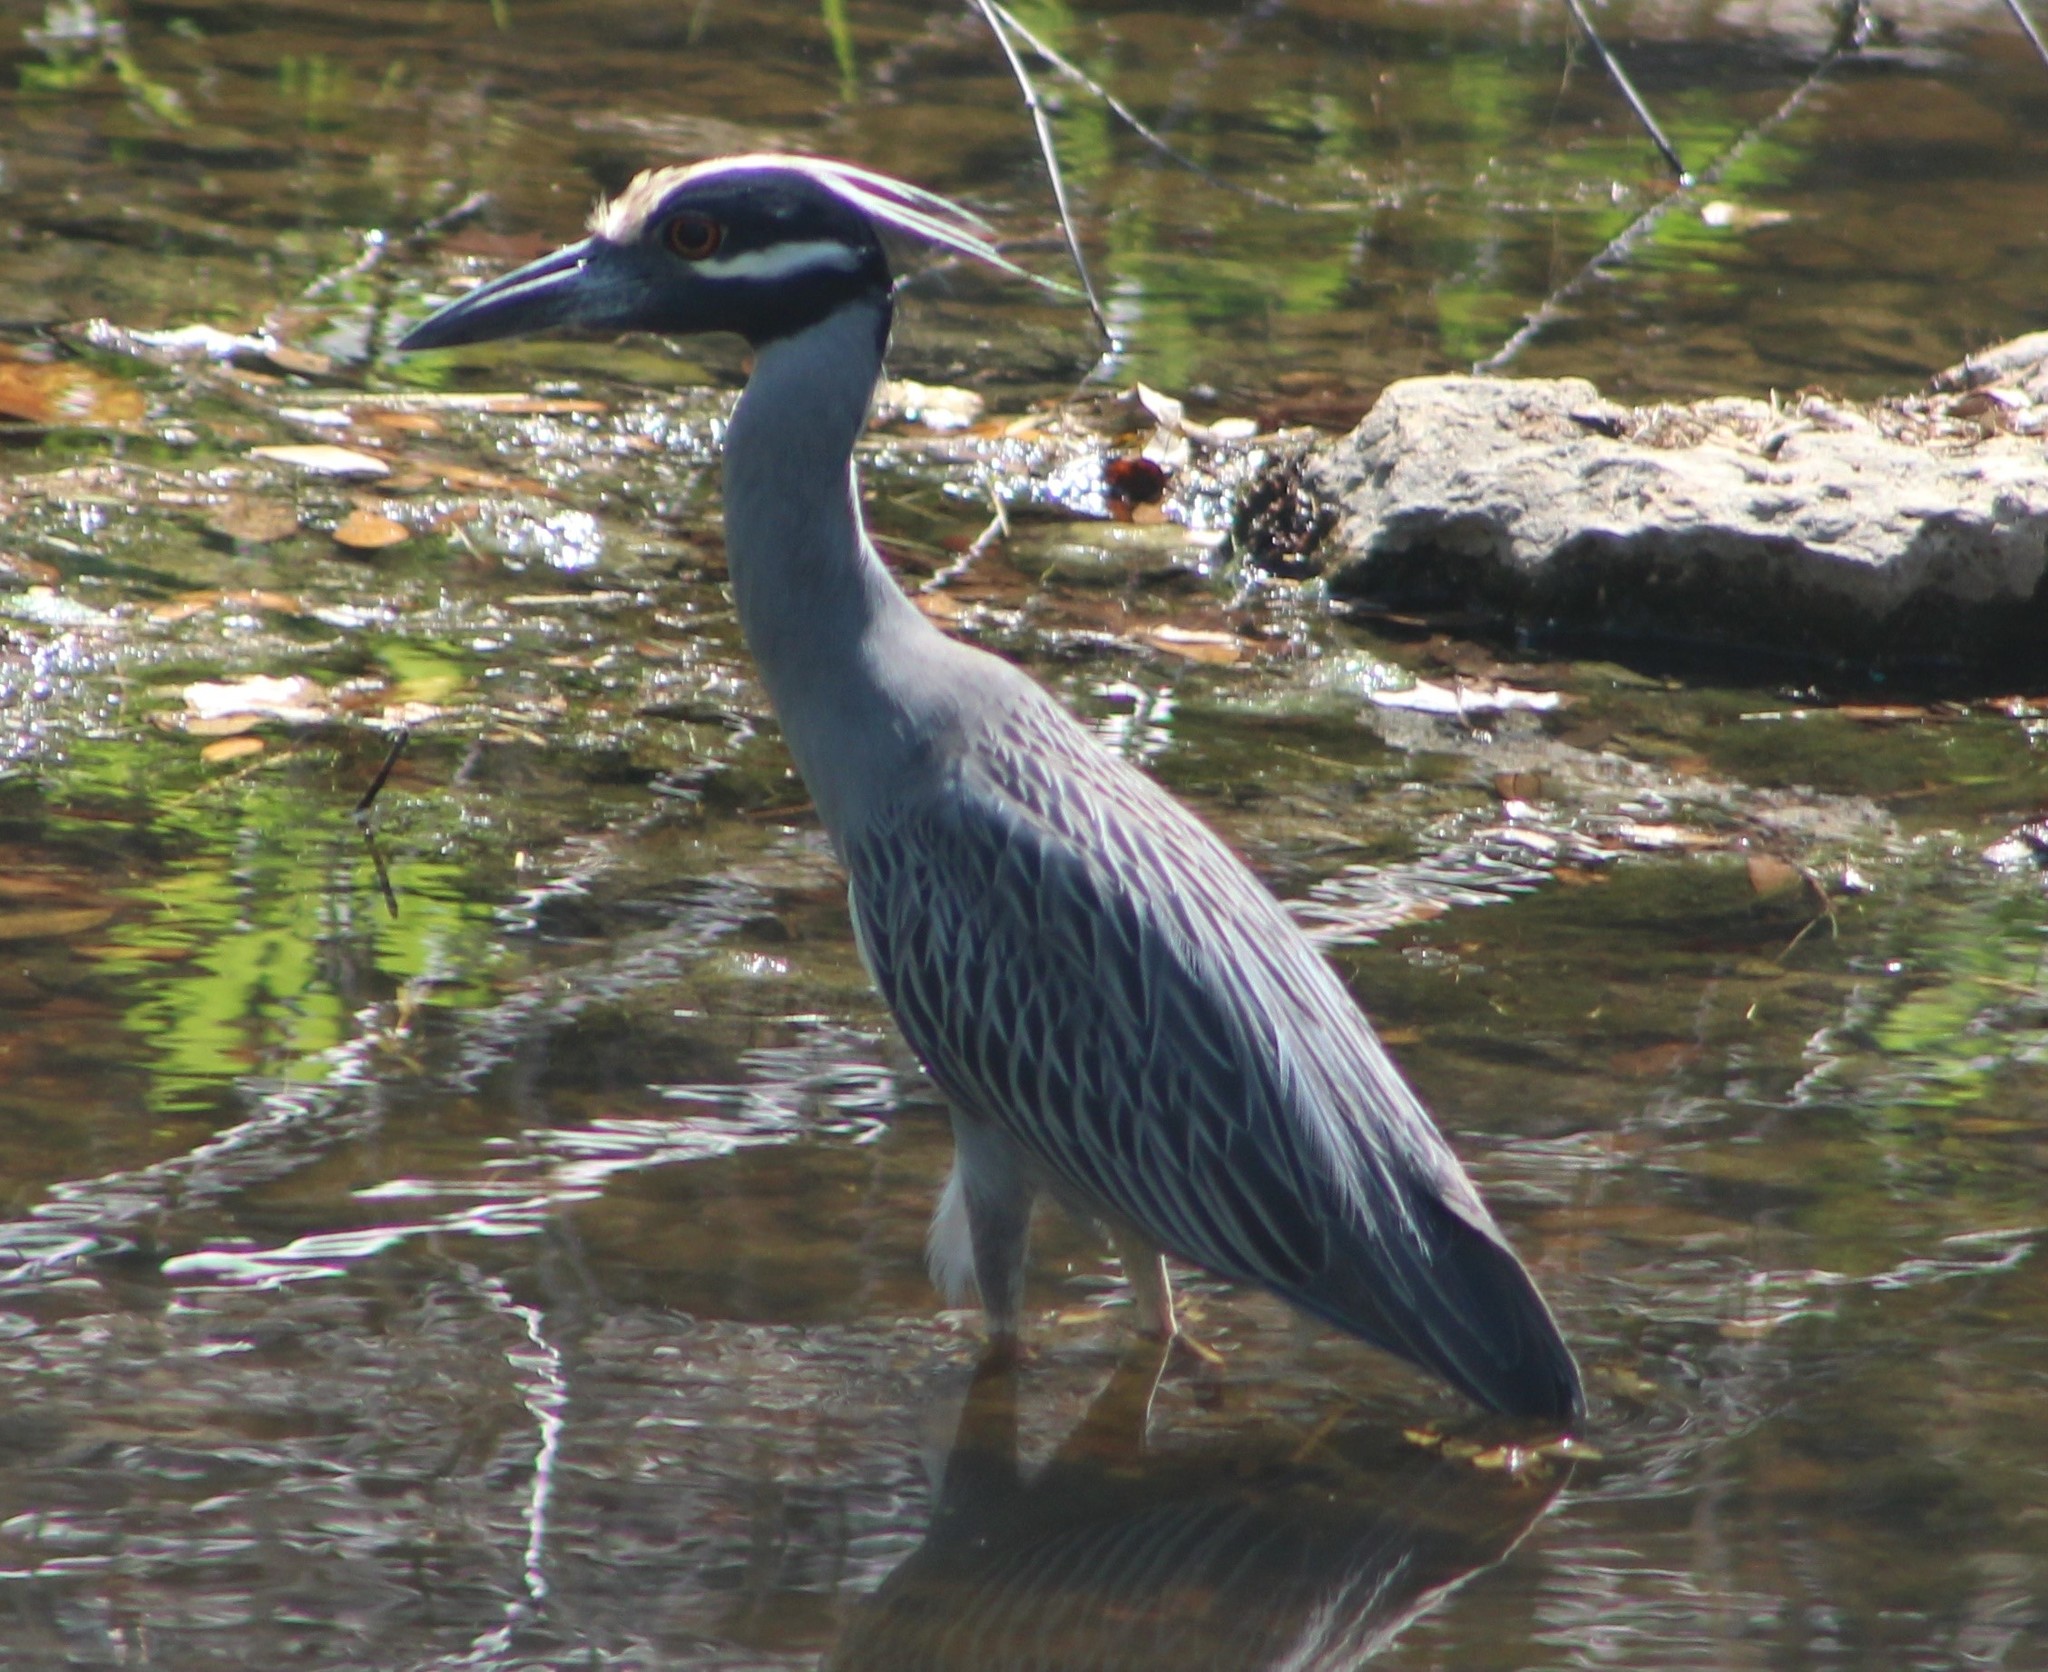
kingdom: Animalia
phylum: Chordata
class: Aves
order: Pelecaniformes
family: Ardeidae
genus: Nyctanassa
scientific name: Nyctanassa violacea
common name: Yellow-crowned night heron
